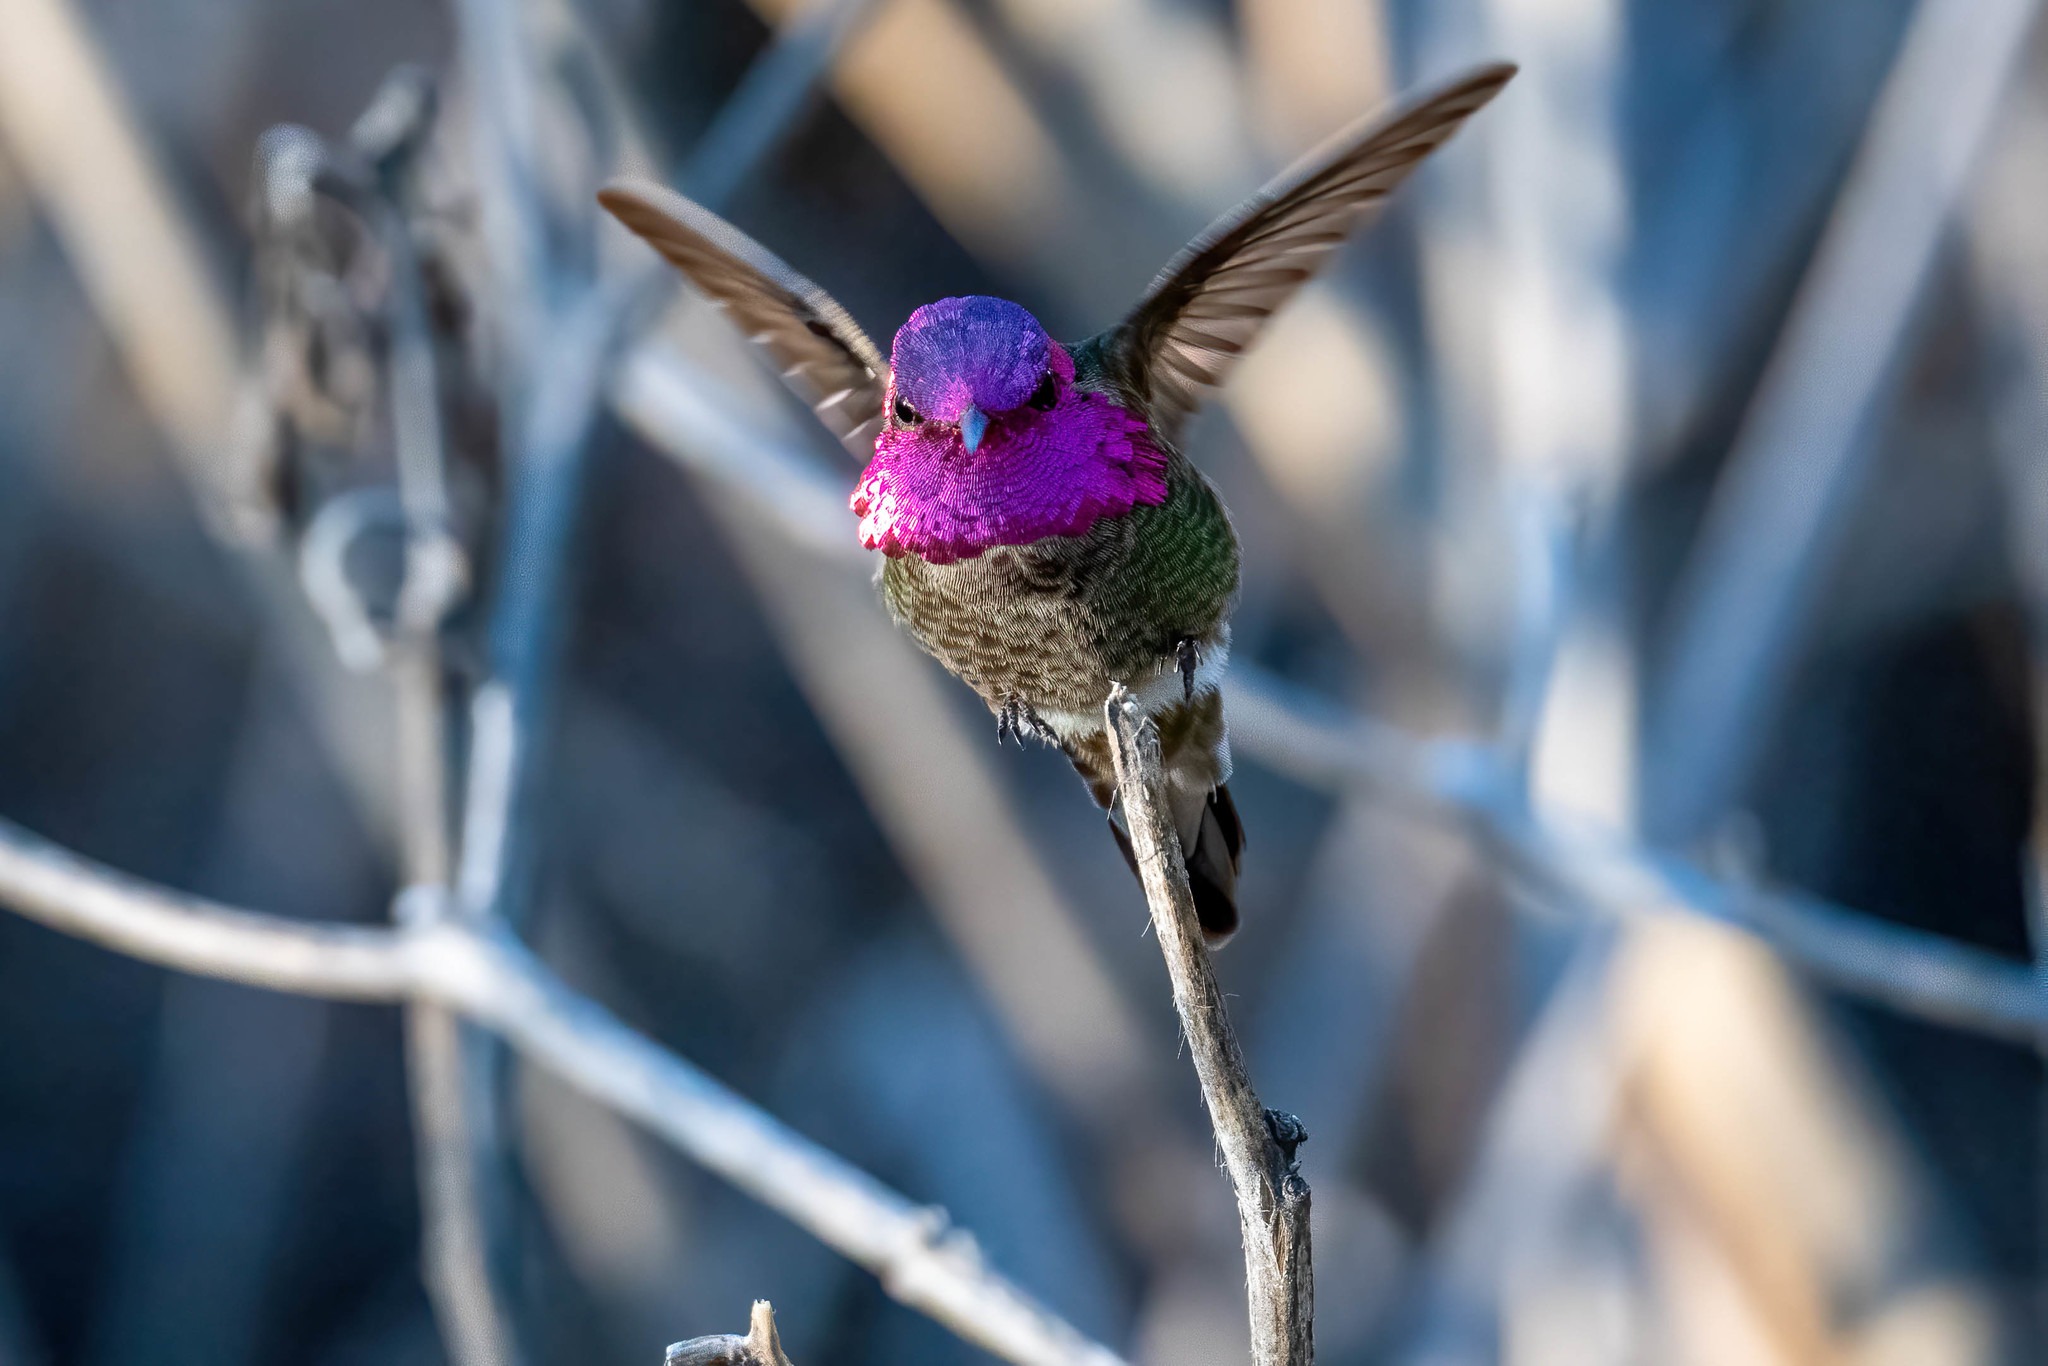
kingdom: Animalia
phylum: Chordata
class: Aves
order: Apodiformes
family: Trochilidae
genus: Calypte
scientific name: Calypte anna
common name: Anna's hummingbird
